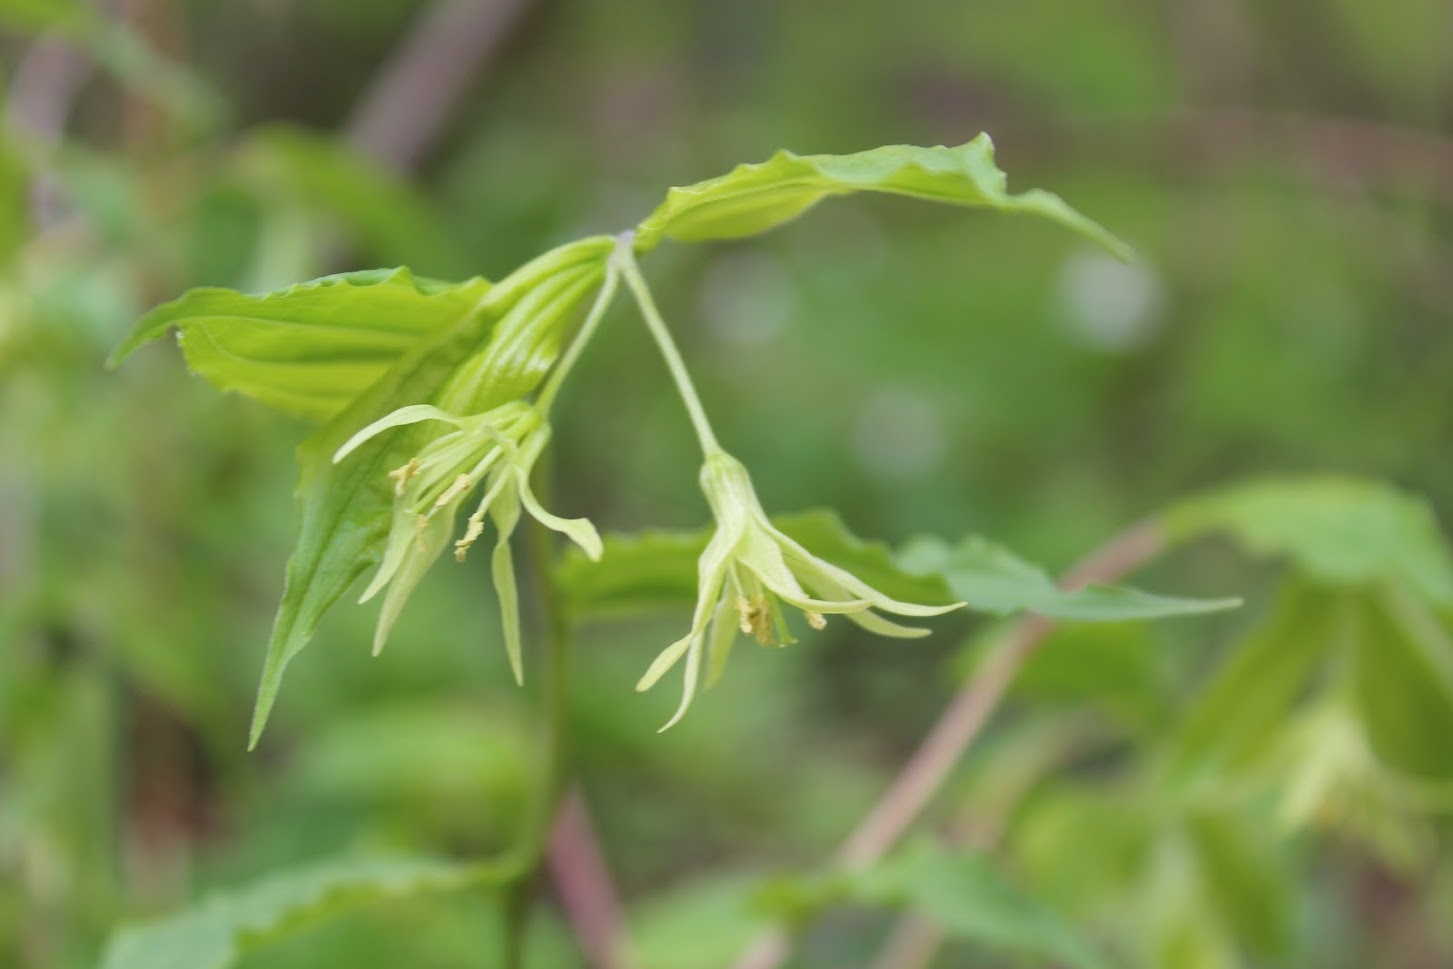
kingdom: Plantae
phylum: Tracheophyta
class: Liliopsida
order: Liliales
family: Liliaceae
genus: Prosartes
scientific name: Prosartes lanuginosa
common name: Hairy mandarin
